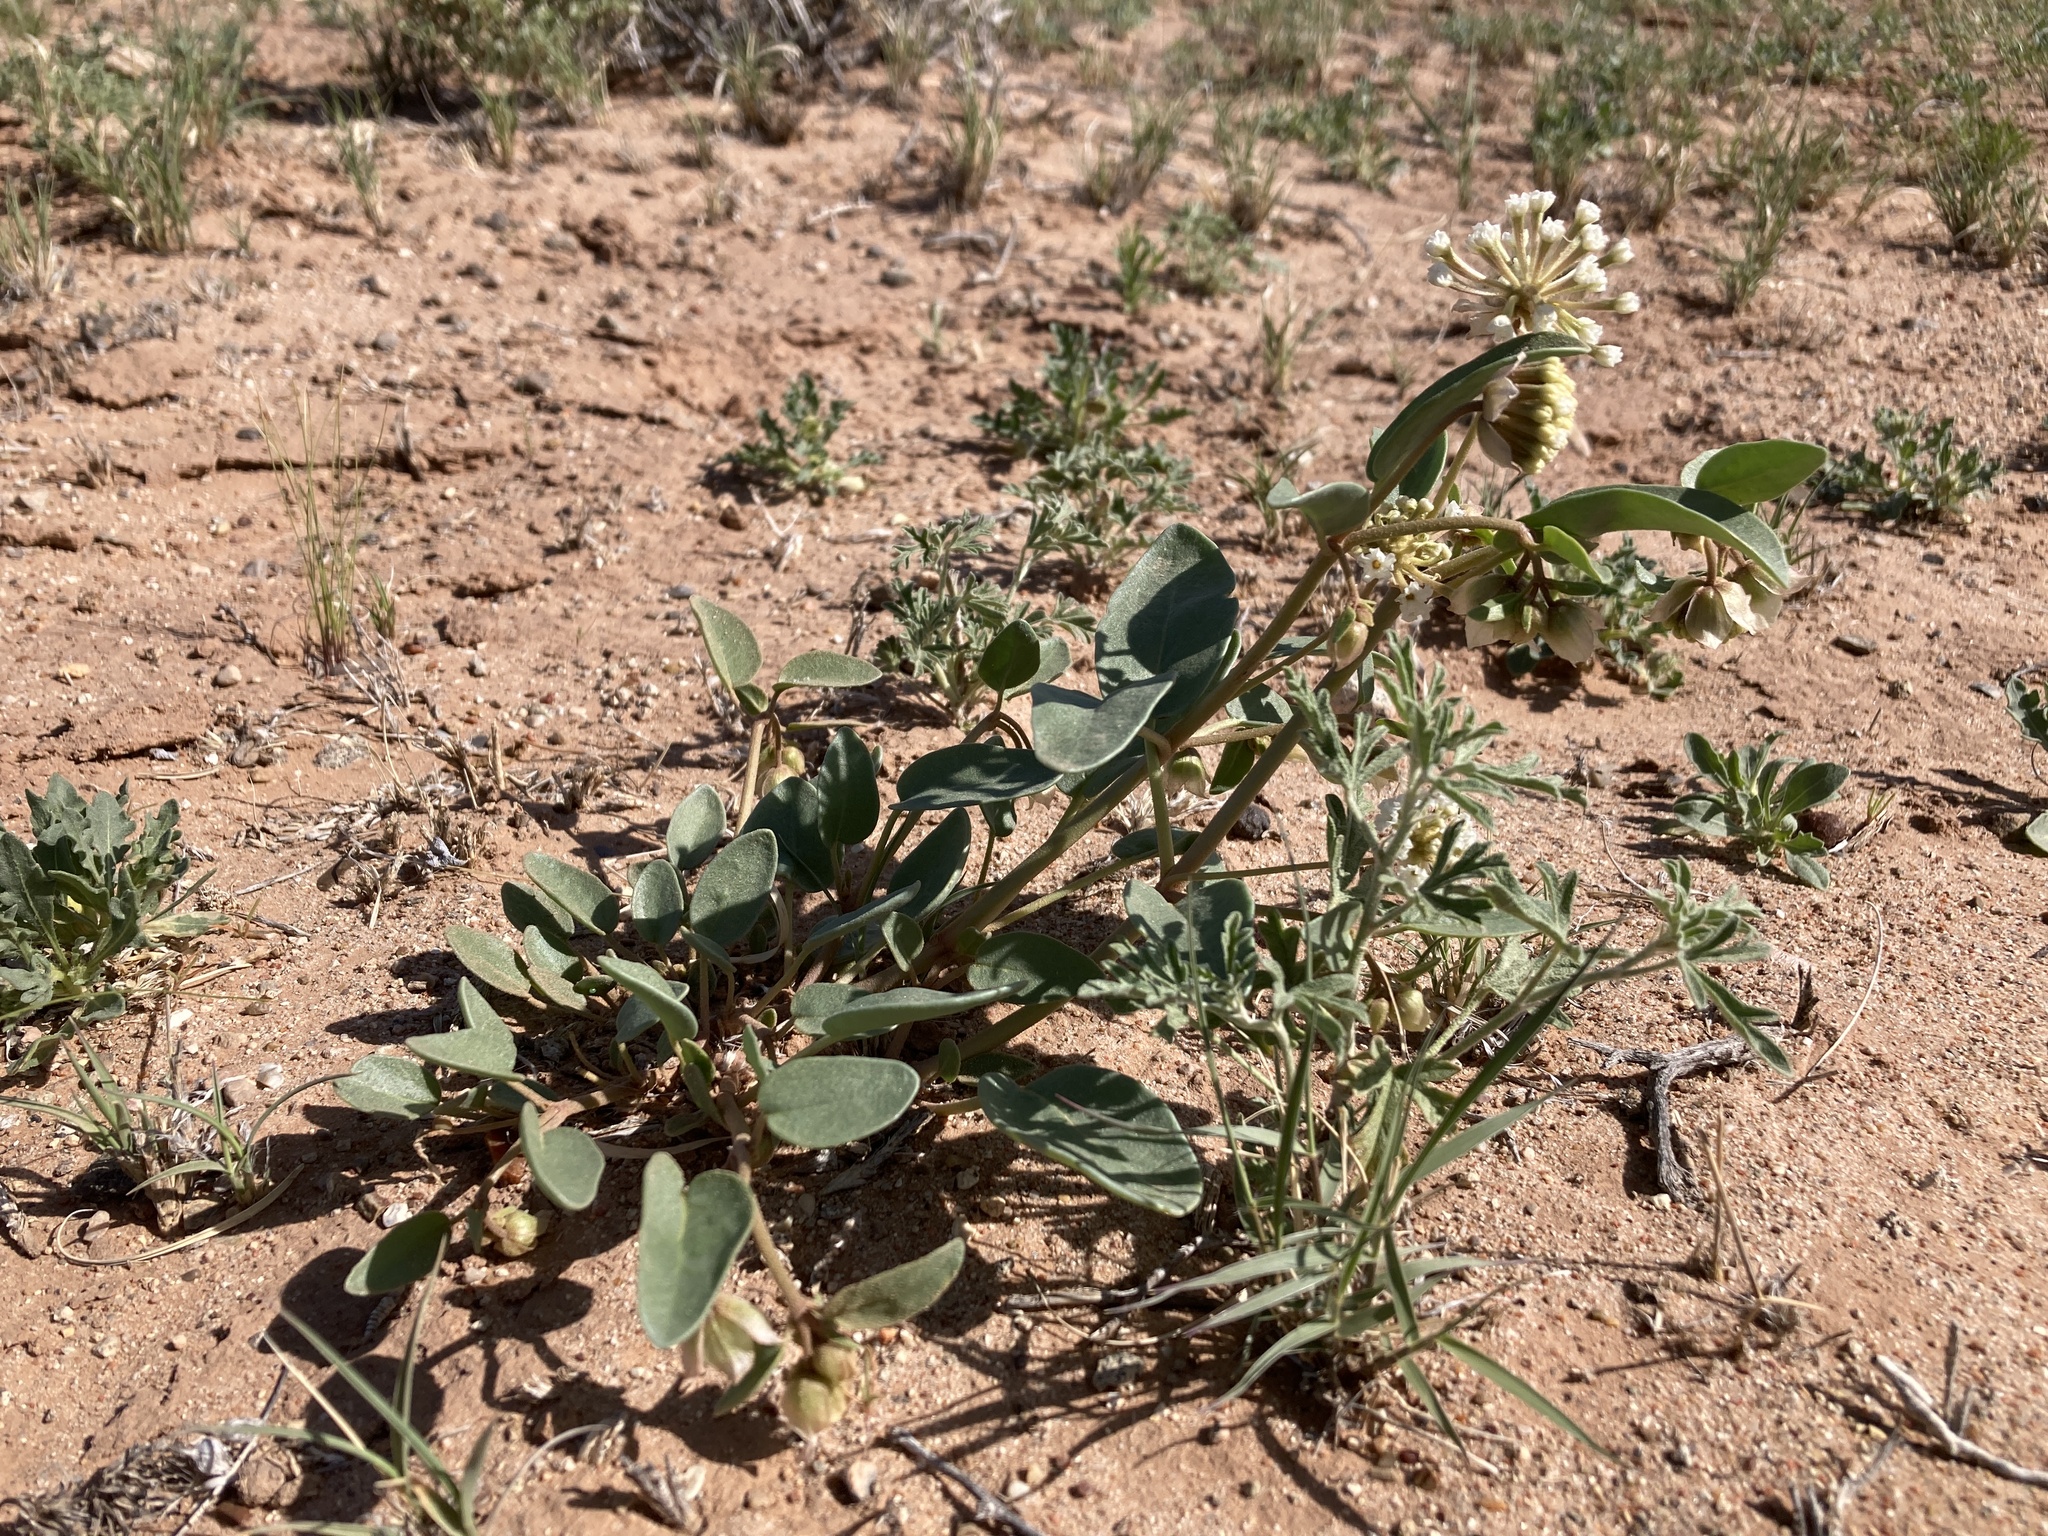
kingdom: Plantae
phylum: Tracheophyta
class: Magnoliopsida
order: Caryophyllales
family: Nyctaginaceae
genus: Abronia
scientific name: Abronia elliptica
